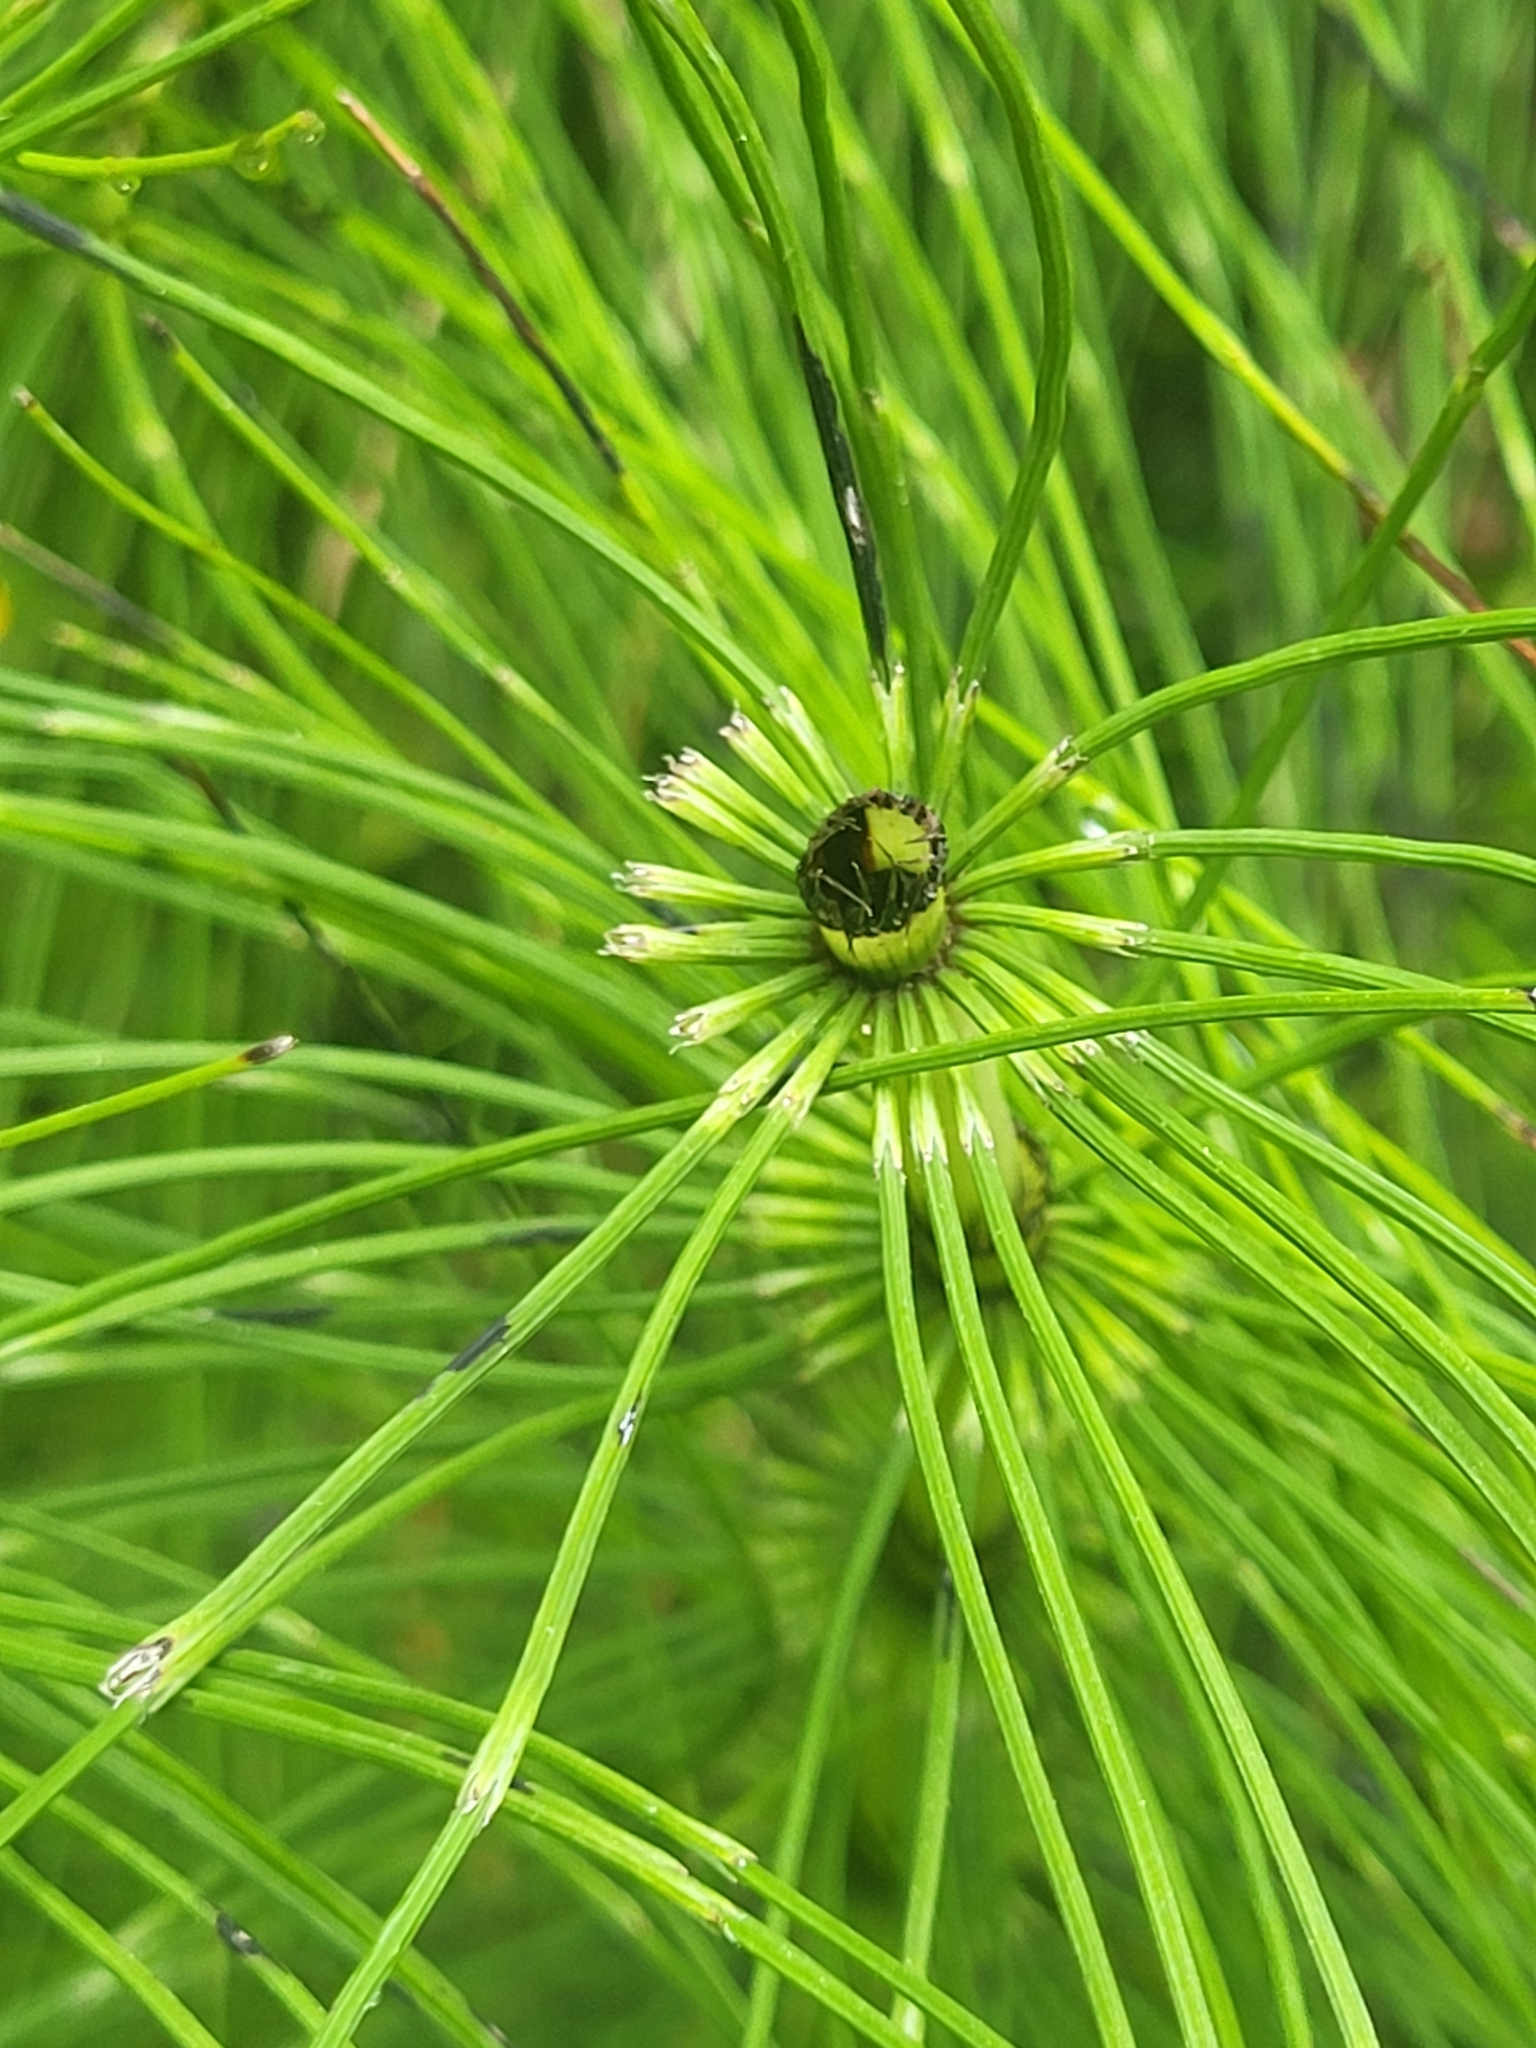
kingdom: Plantae
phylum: Tracheophyta
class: Polypodiopsida
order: Equisetales
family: Equisetaceae
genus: Equisetum
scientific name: Equisetum telmateia
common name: Great horsetail
